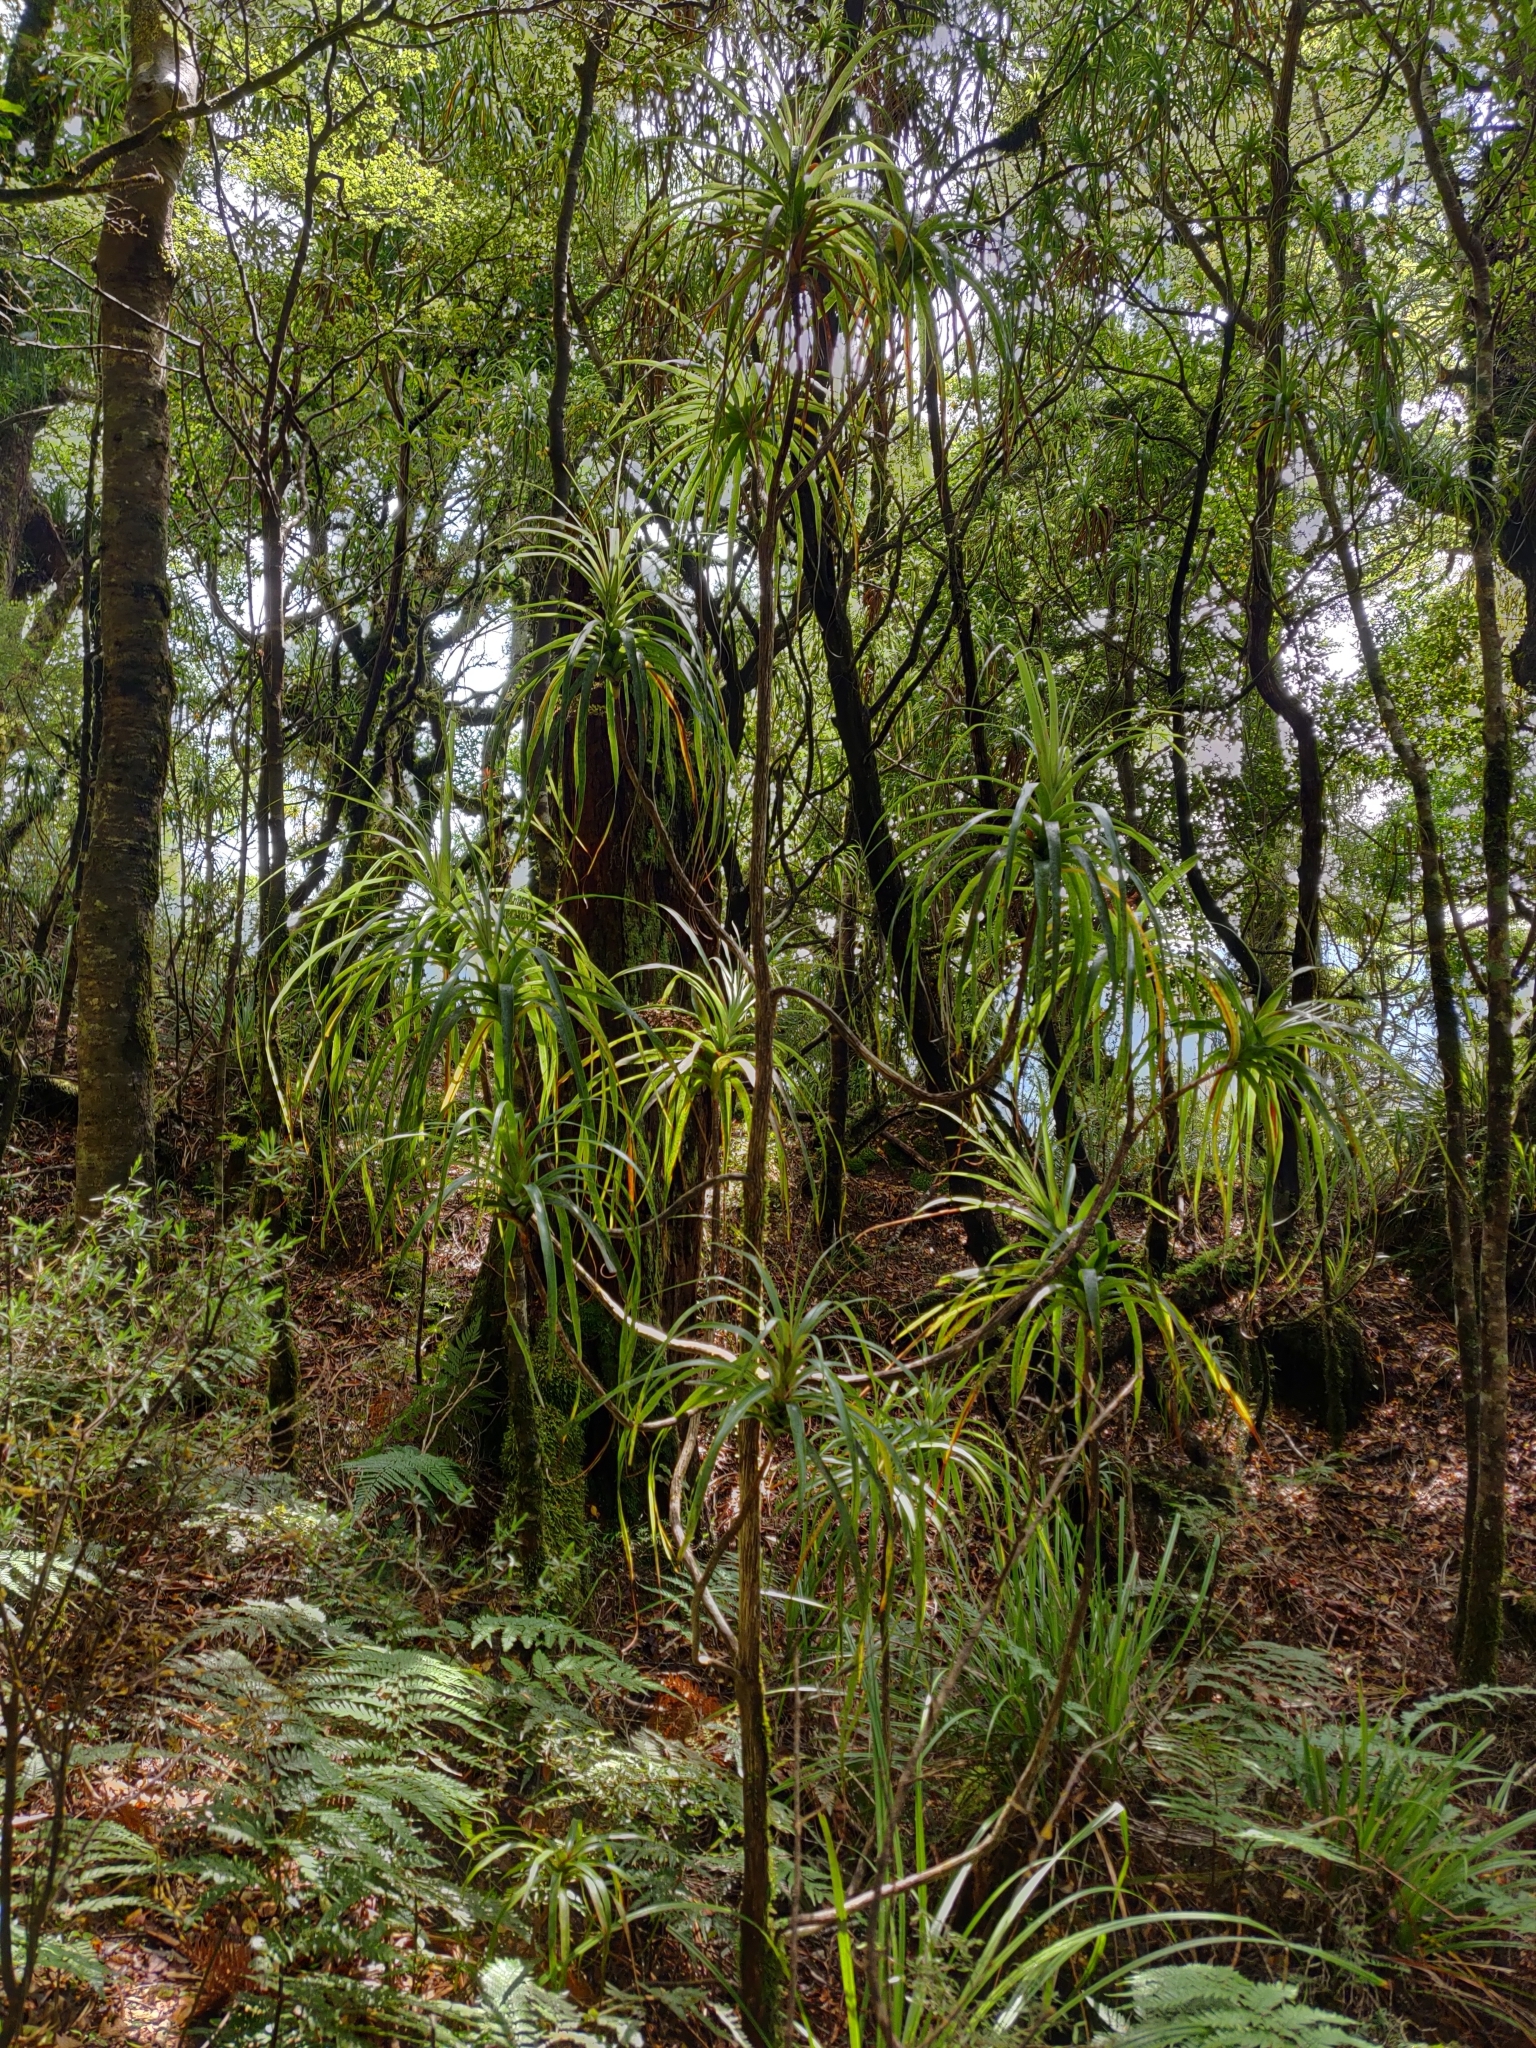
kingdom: Plantae
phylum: Tracheophyta
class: Magnoliopsida
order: Ericales
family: Ericaceae
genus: Dracophyllum
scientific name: Dracophyllum latifolium
